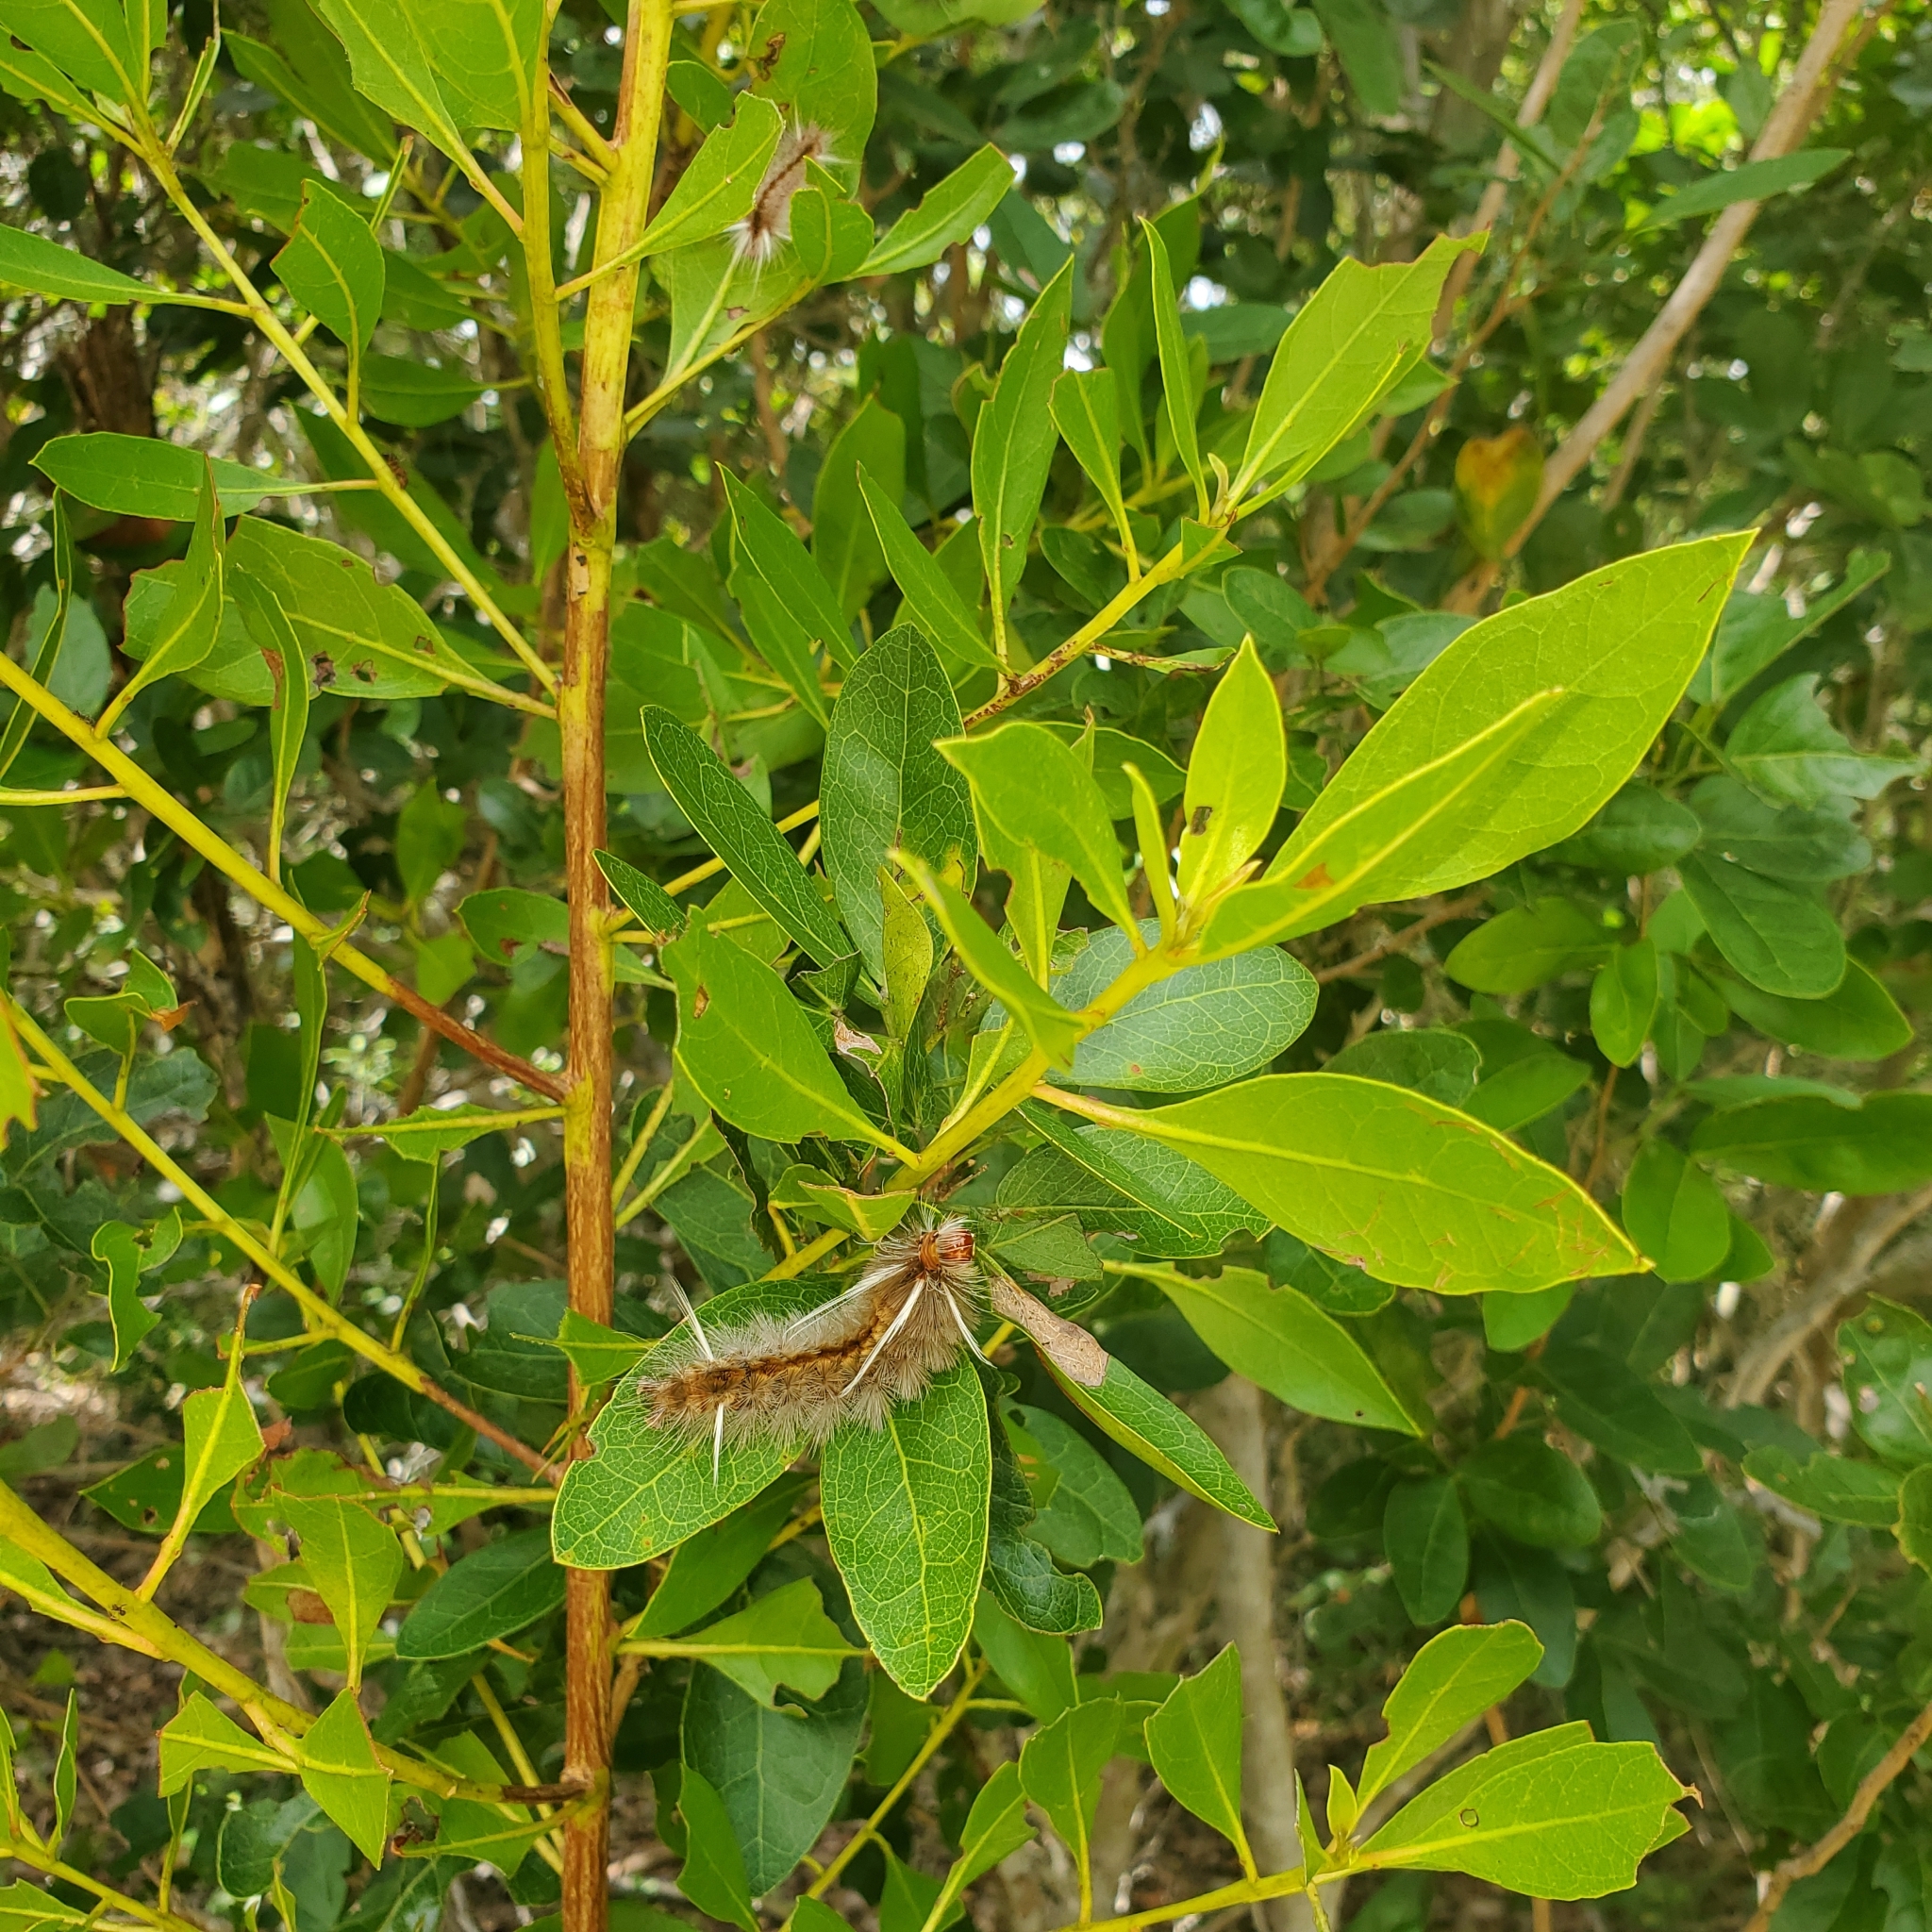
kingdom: Plantae
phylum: Tracheophyta
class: Magnoliopsida
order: Myrtales
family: Combretaceae
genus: Conocarpus
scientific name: Conocarpus erectus
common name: Button mangrove
